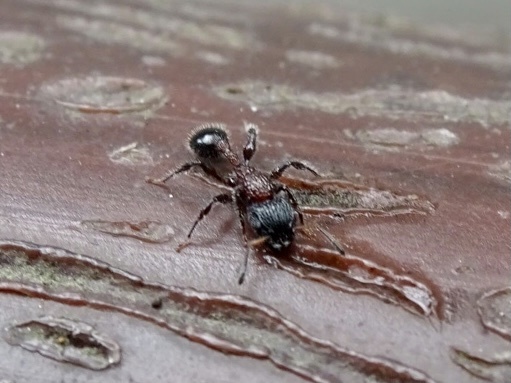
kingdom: Animalia
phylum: Arthropoda
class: Insecta
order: Hymenoptera
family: Formicidae
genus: Dilobocondyla
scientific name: Dilobocondyla fouqueti
